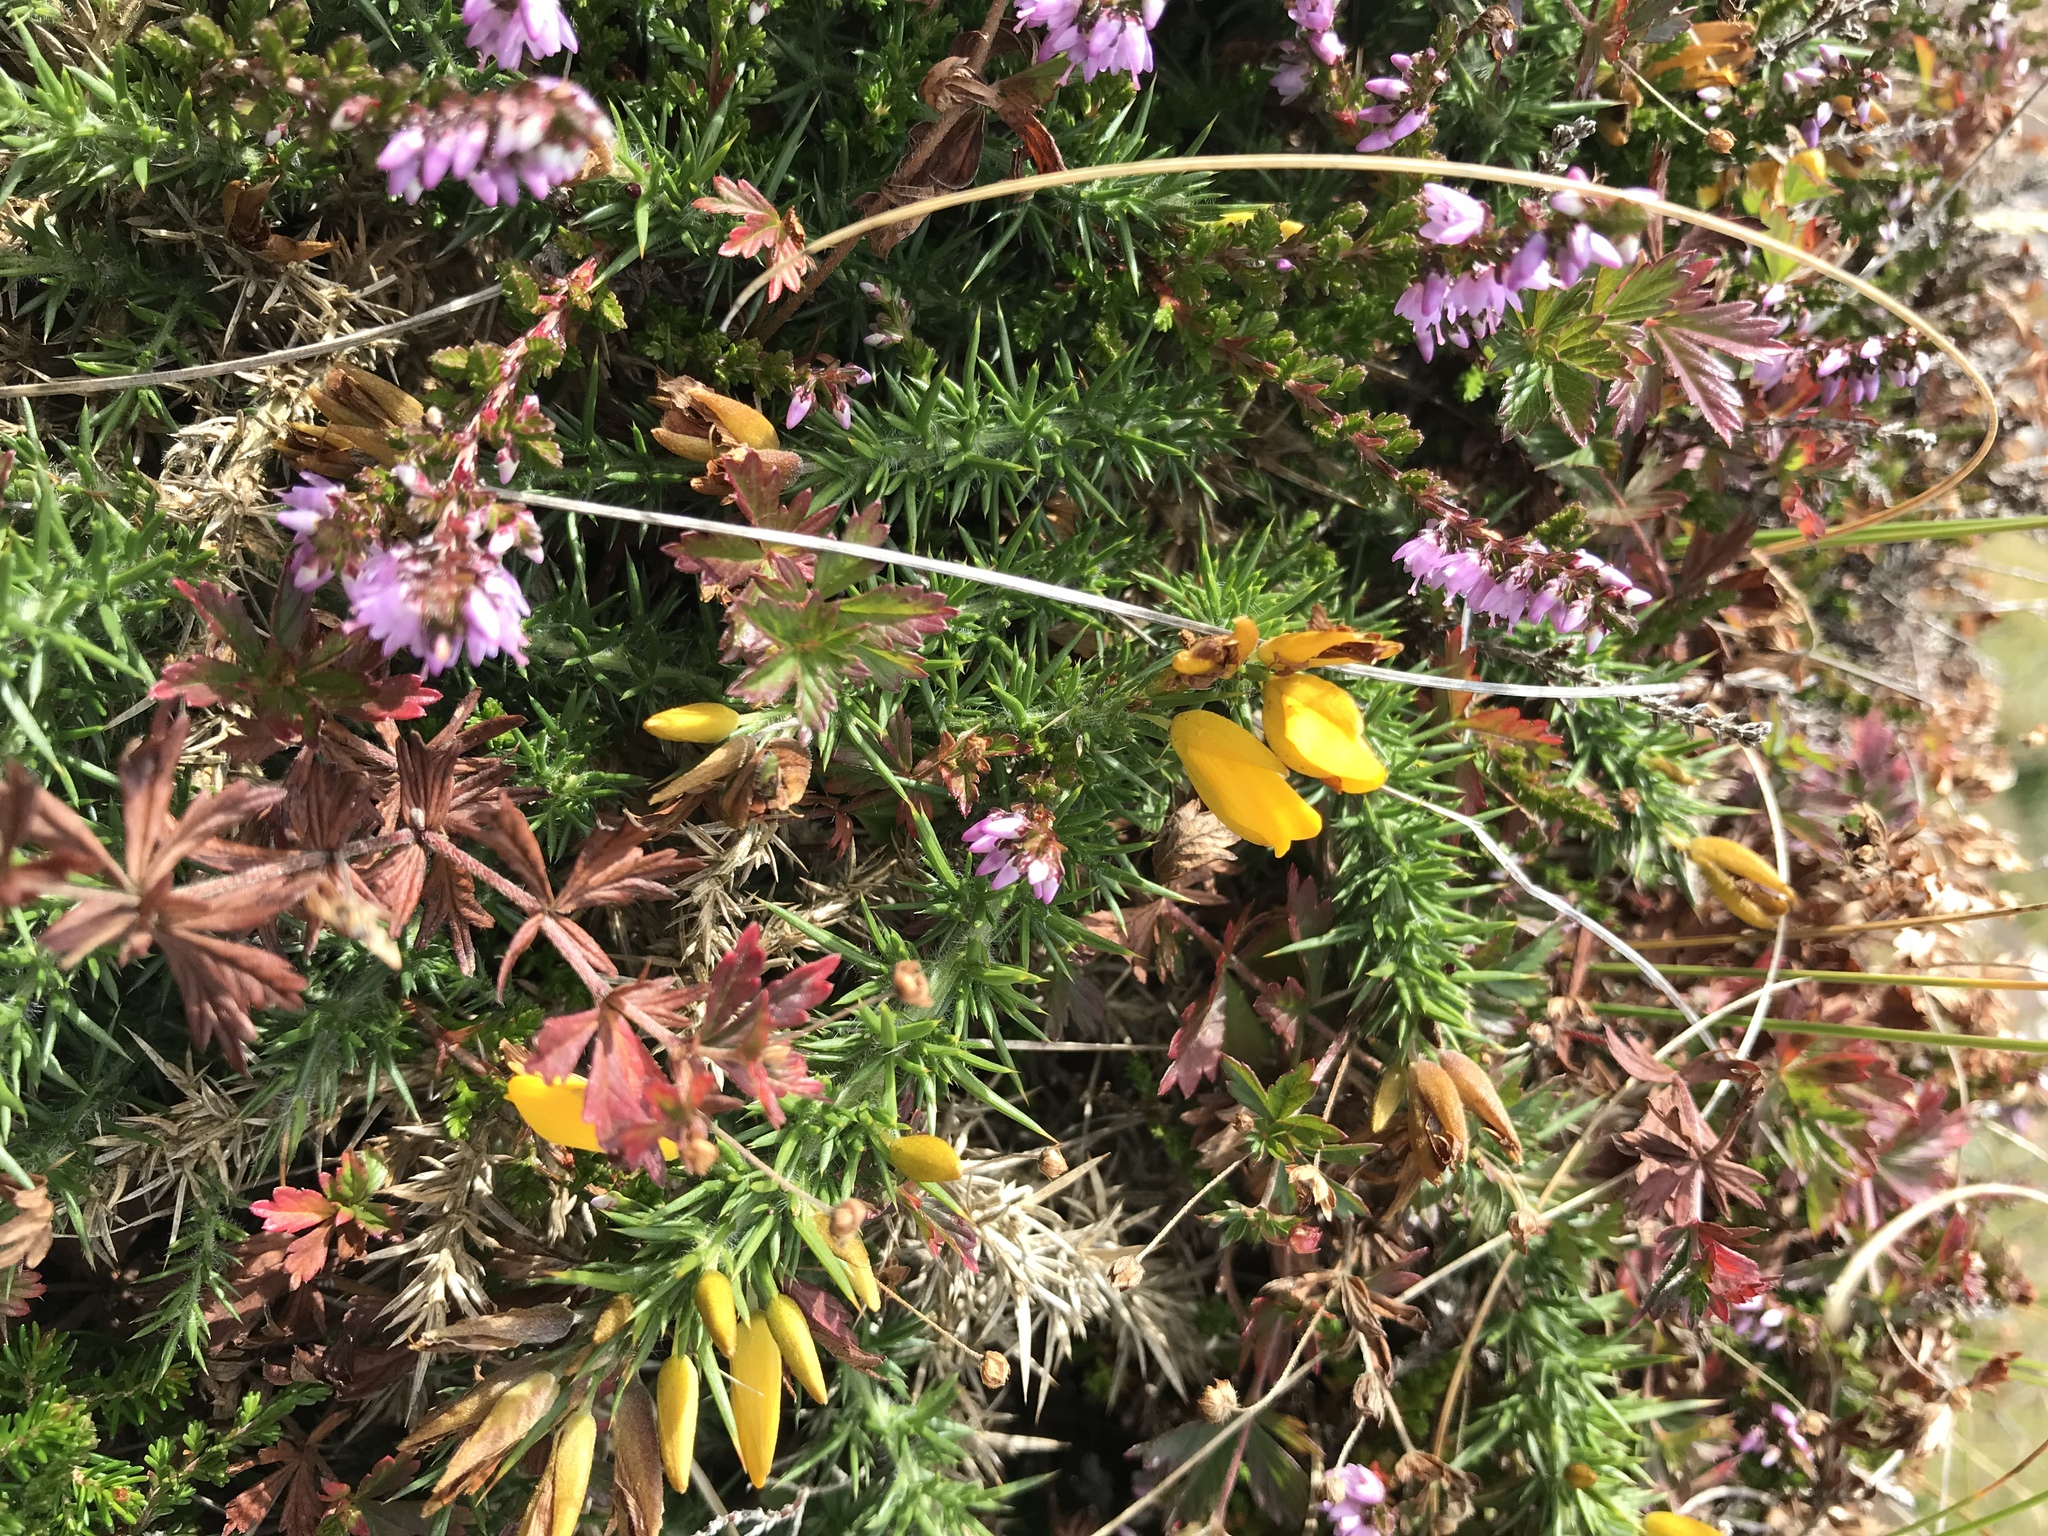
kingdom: Plantae
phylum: Tracheophyta
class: Magnoliopsida
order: Fabales
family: Fabaceae
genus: Ulex
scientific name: Ulex gallii
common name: Western gorse
